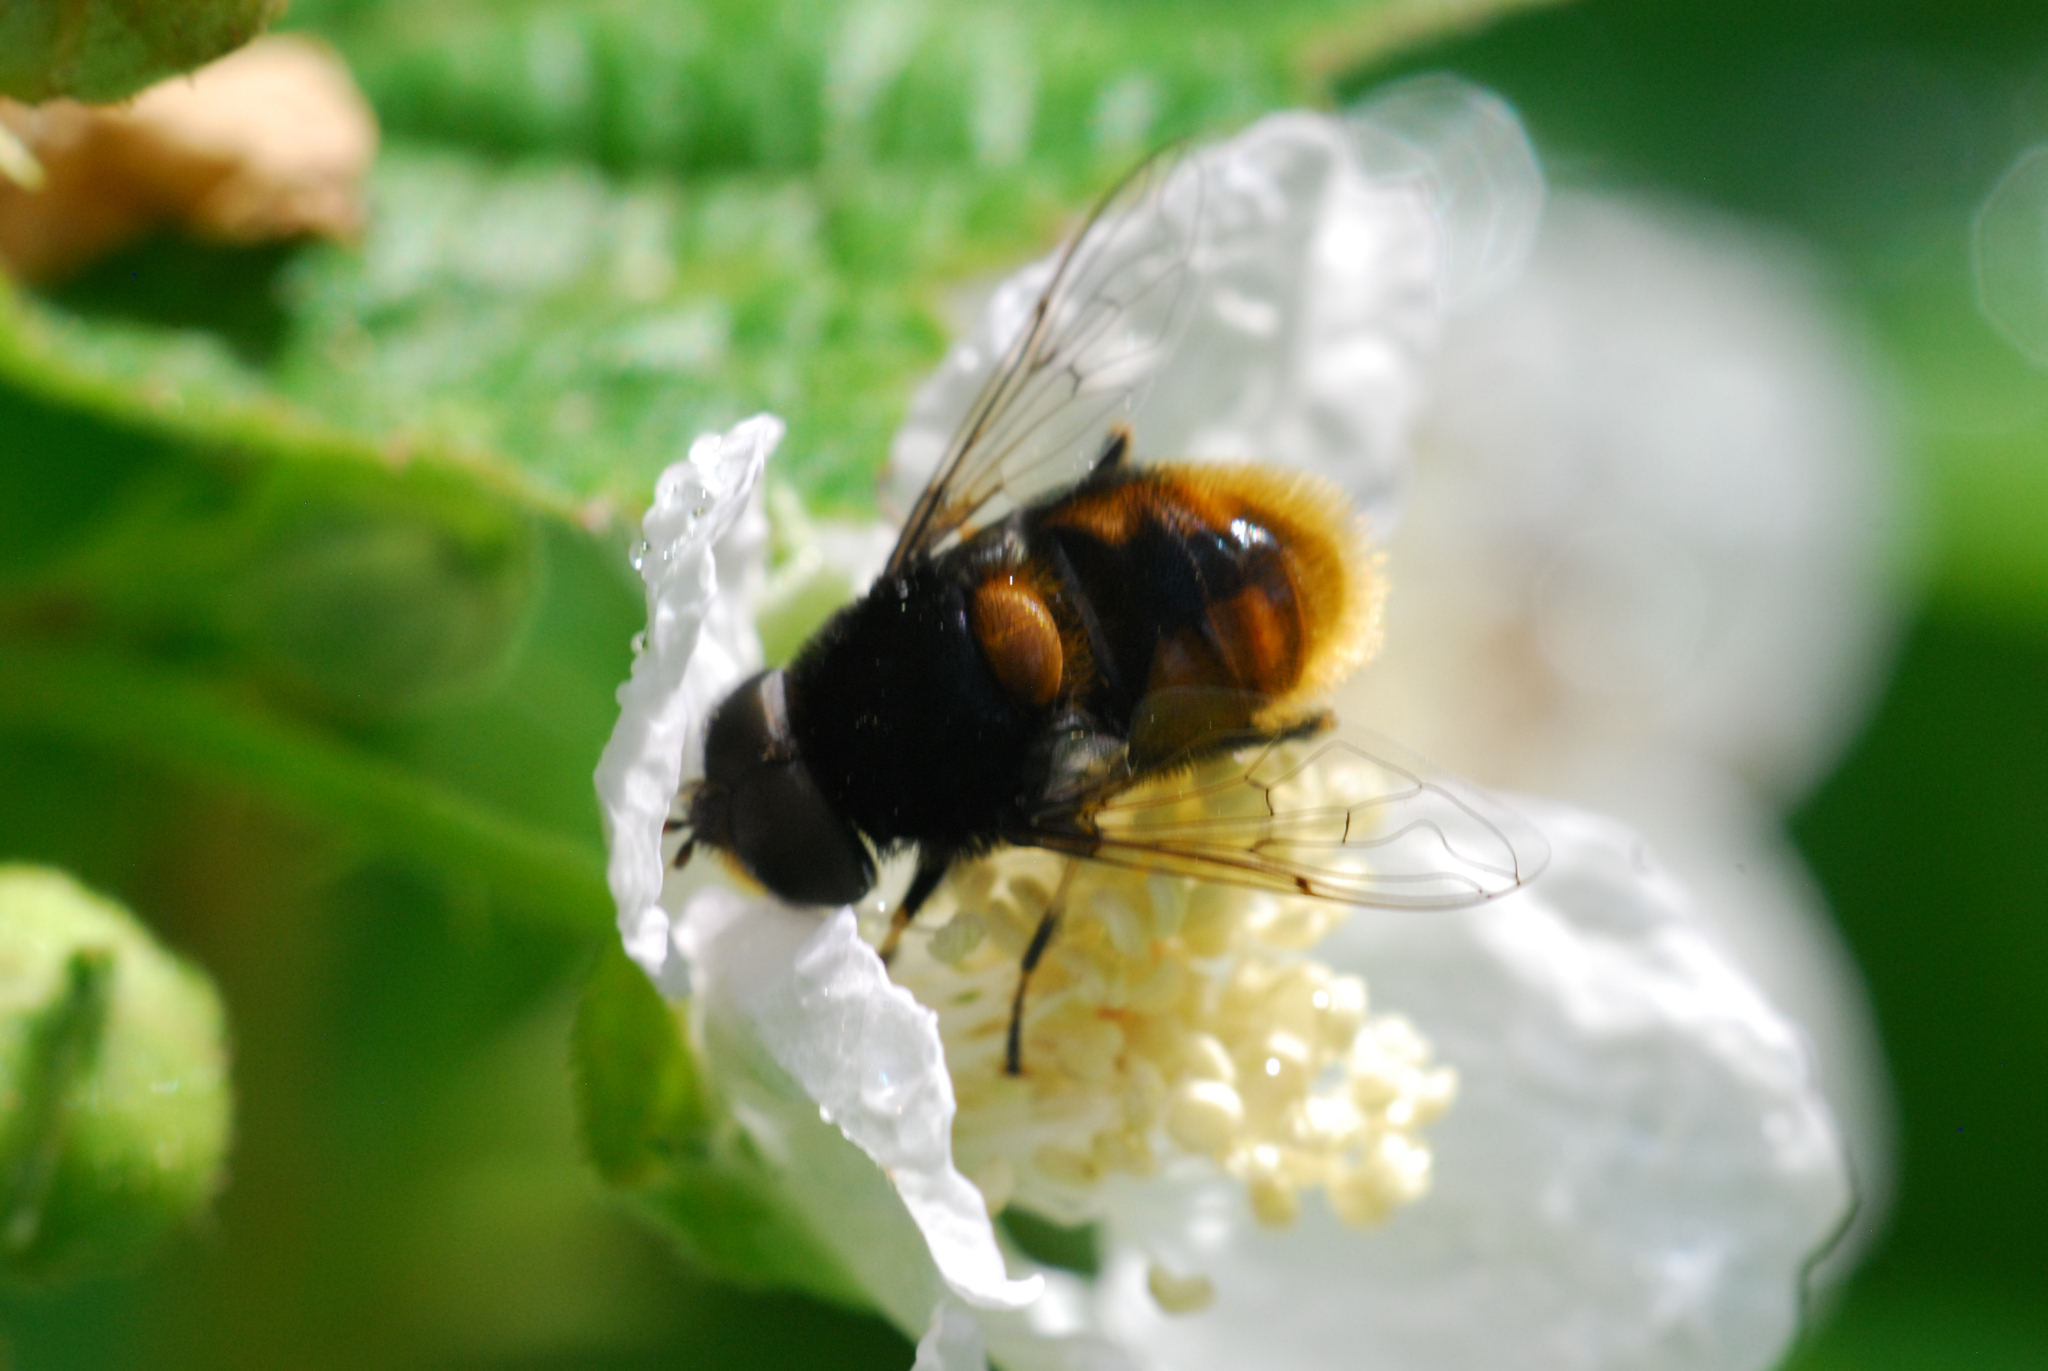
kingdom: Animalia
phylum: Arthropoda
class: Insecta
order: Diptera
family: Syrphidae
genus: Eristalis
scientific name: Eristalis intricaria
